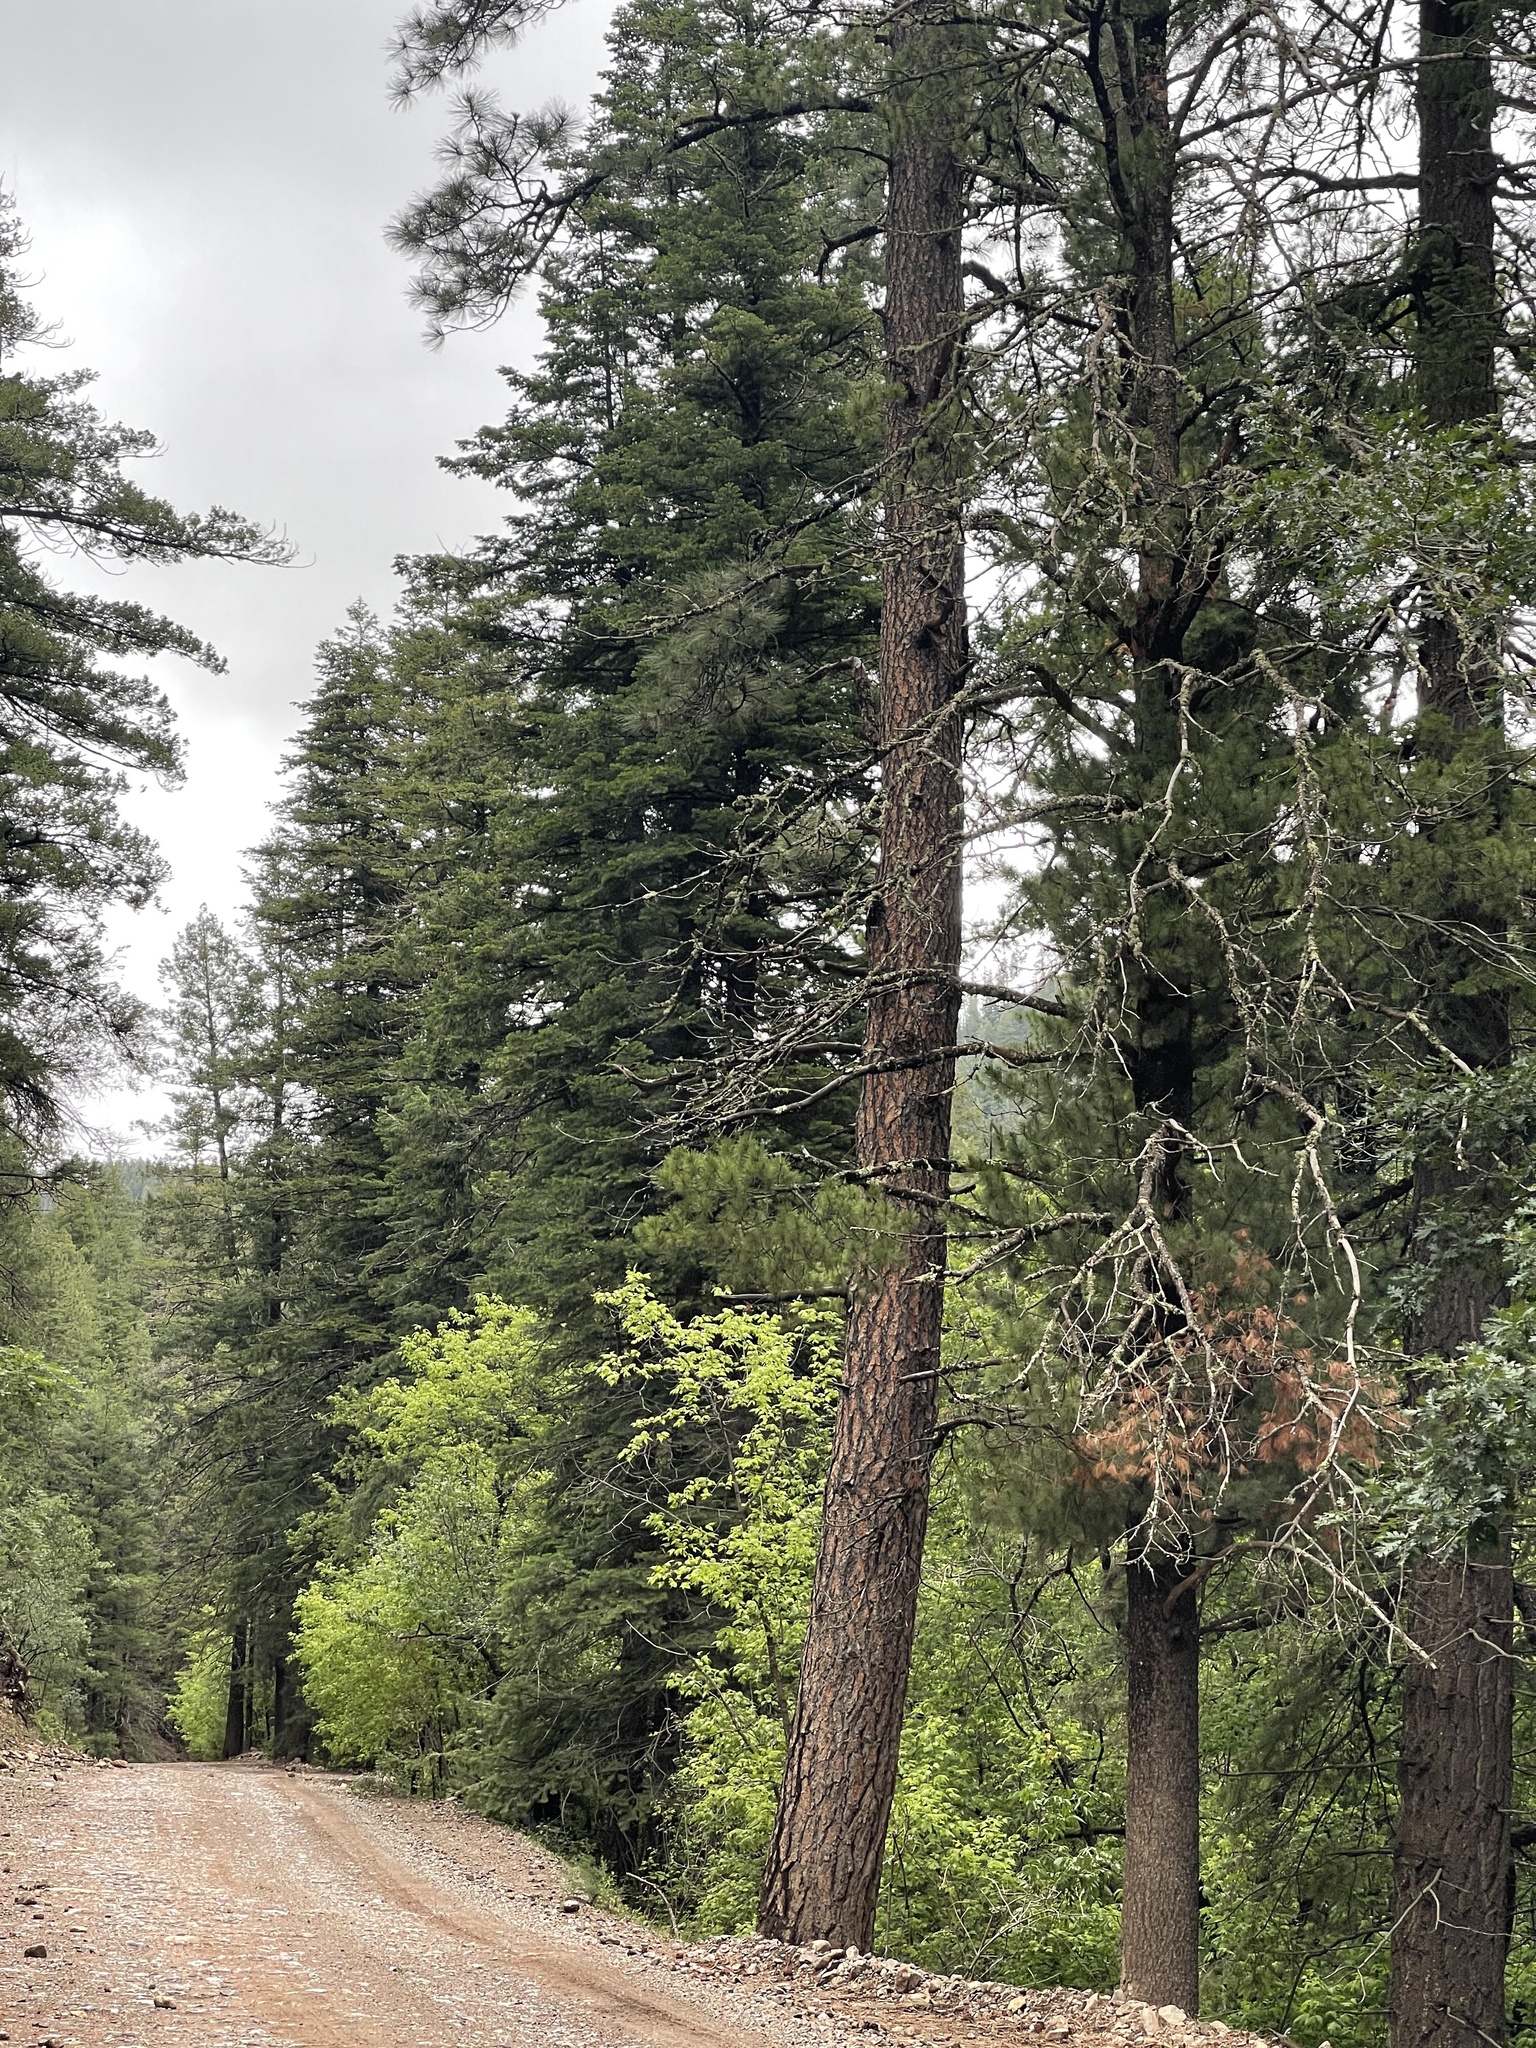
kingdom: Plantae
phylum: Tracheophyta
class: Pinopsida
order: Pinales
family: Pinaceae
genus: Pinus
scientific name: Pinus ponderosa
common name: Western yellow-pine
